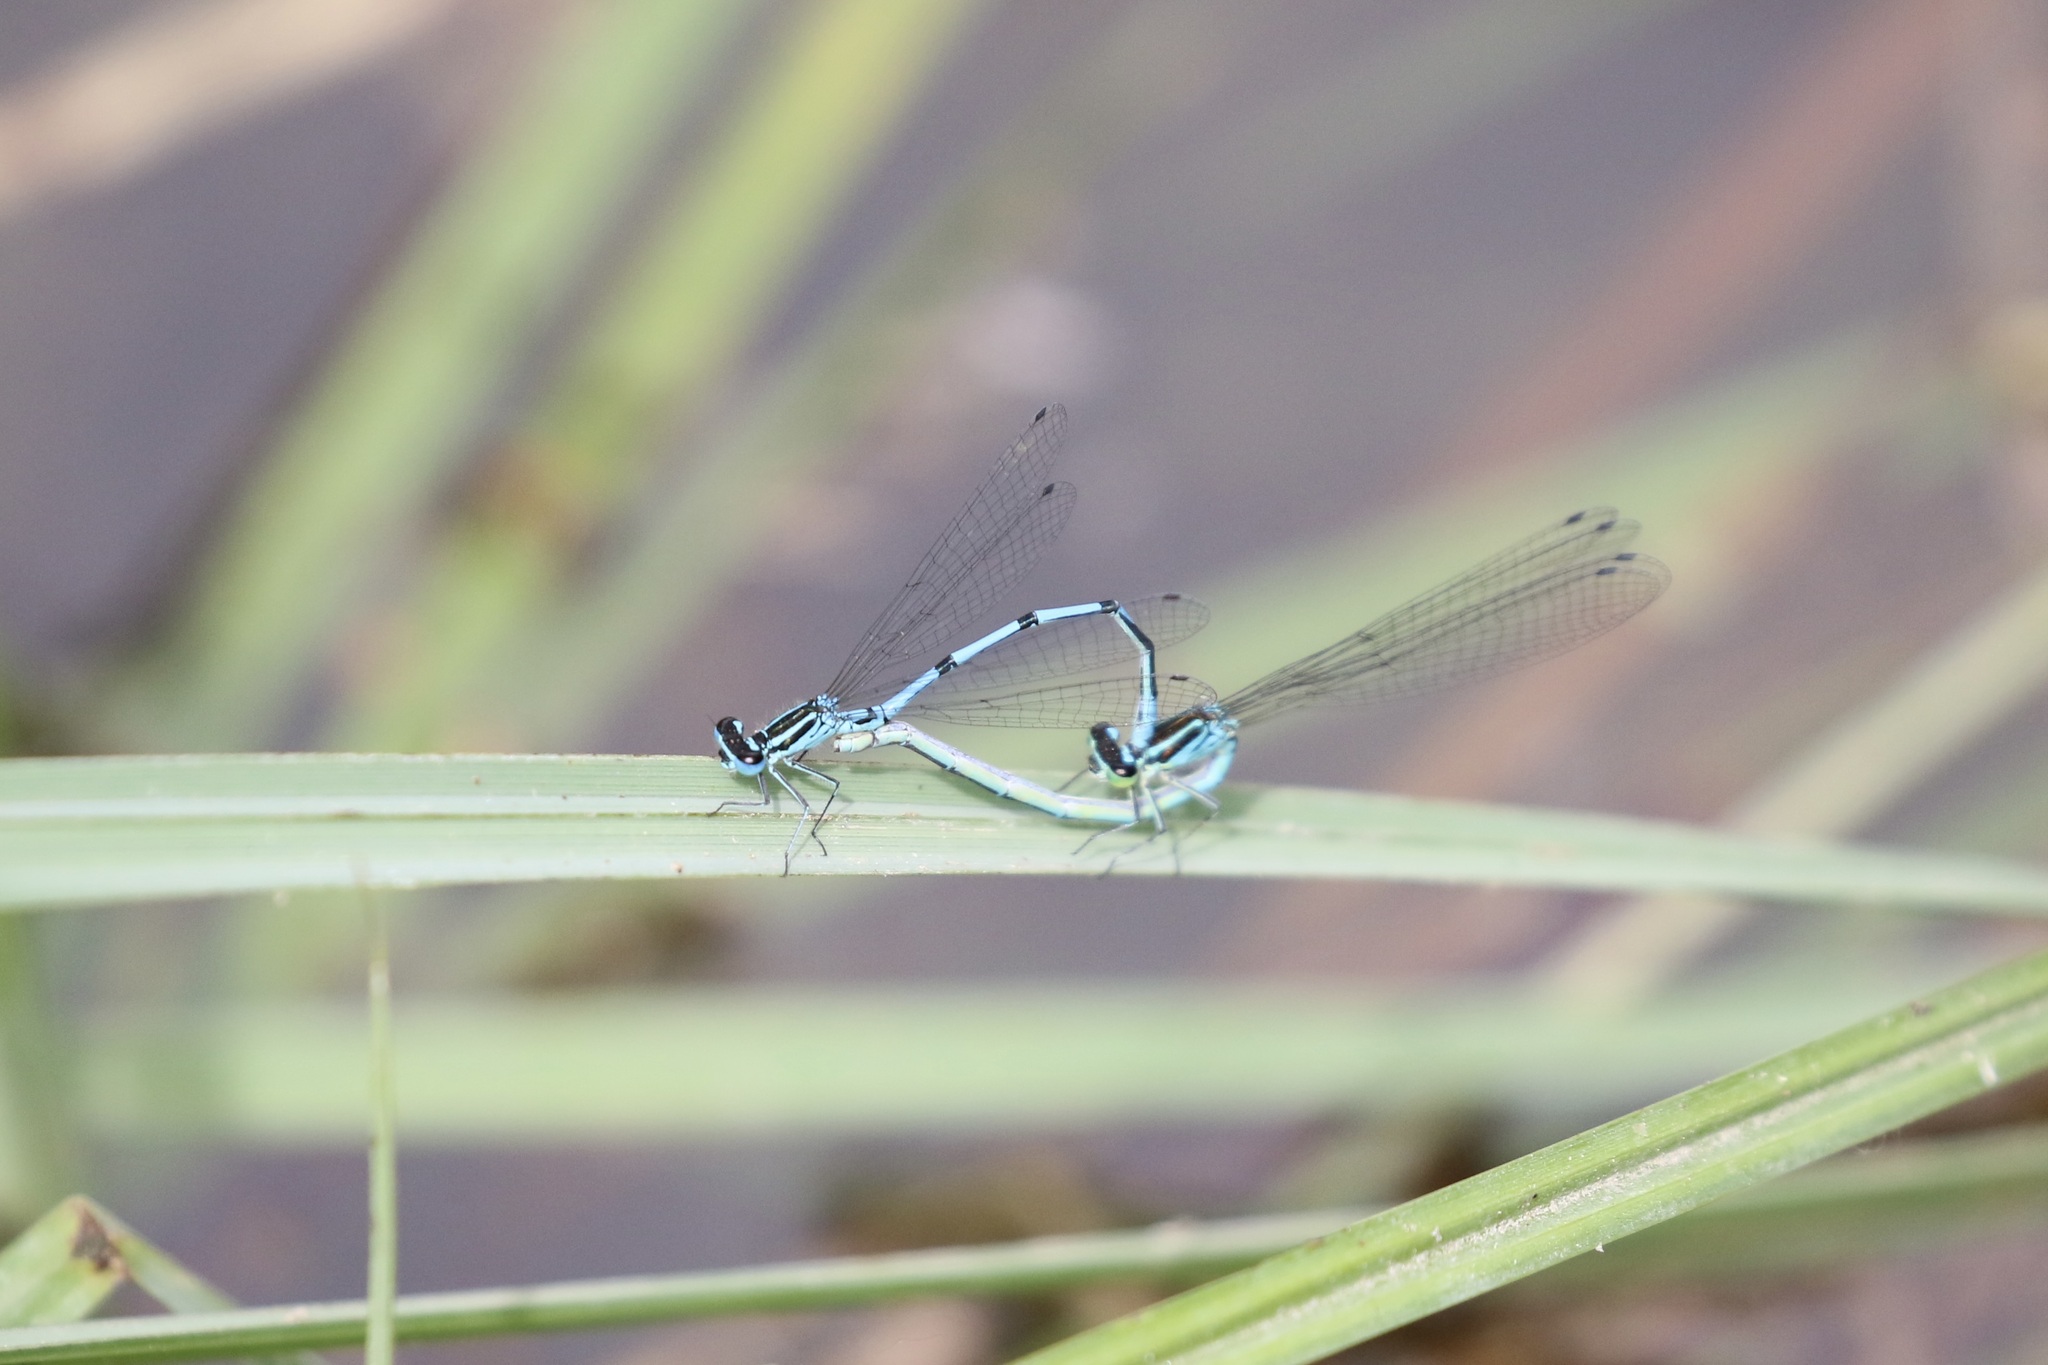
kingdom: Animalia
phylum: Arthropoda
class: Insecta
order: Odonata
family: Coenagrionidae
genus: Coenagrion
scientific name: Coenagrion puella
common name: Azure damselfly
